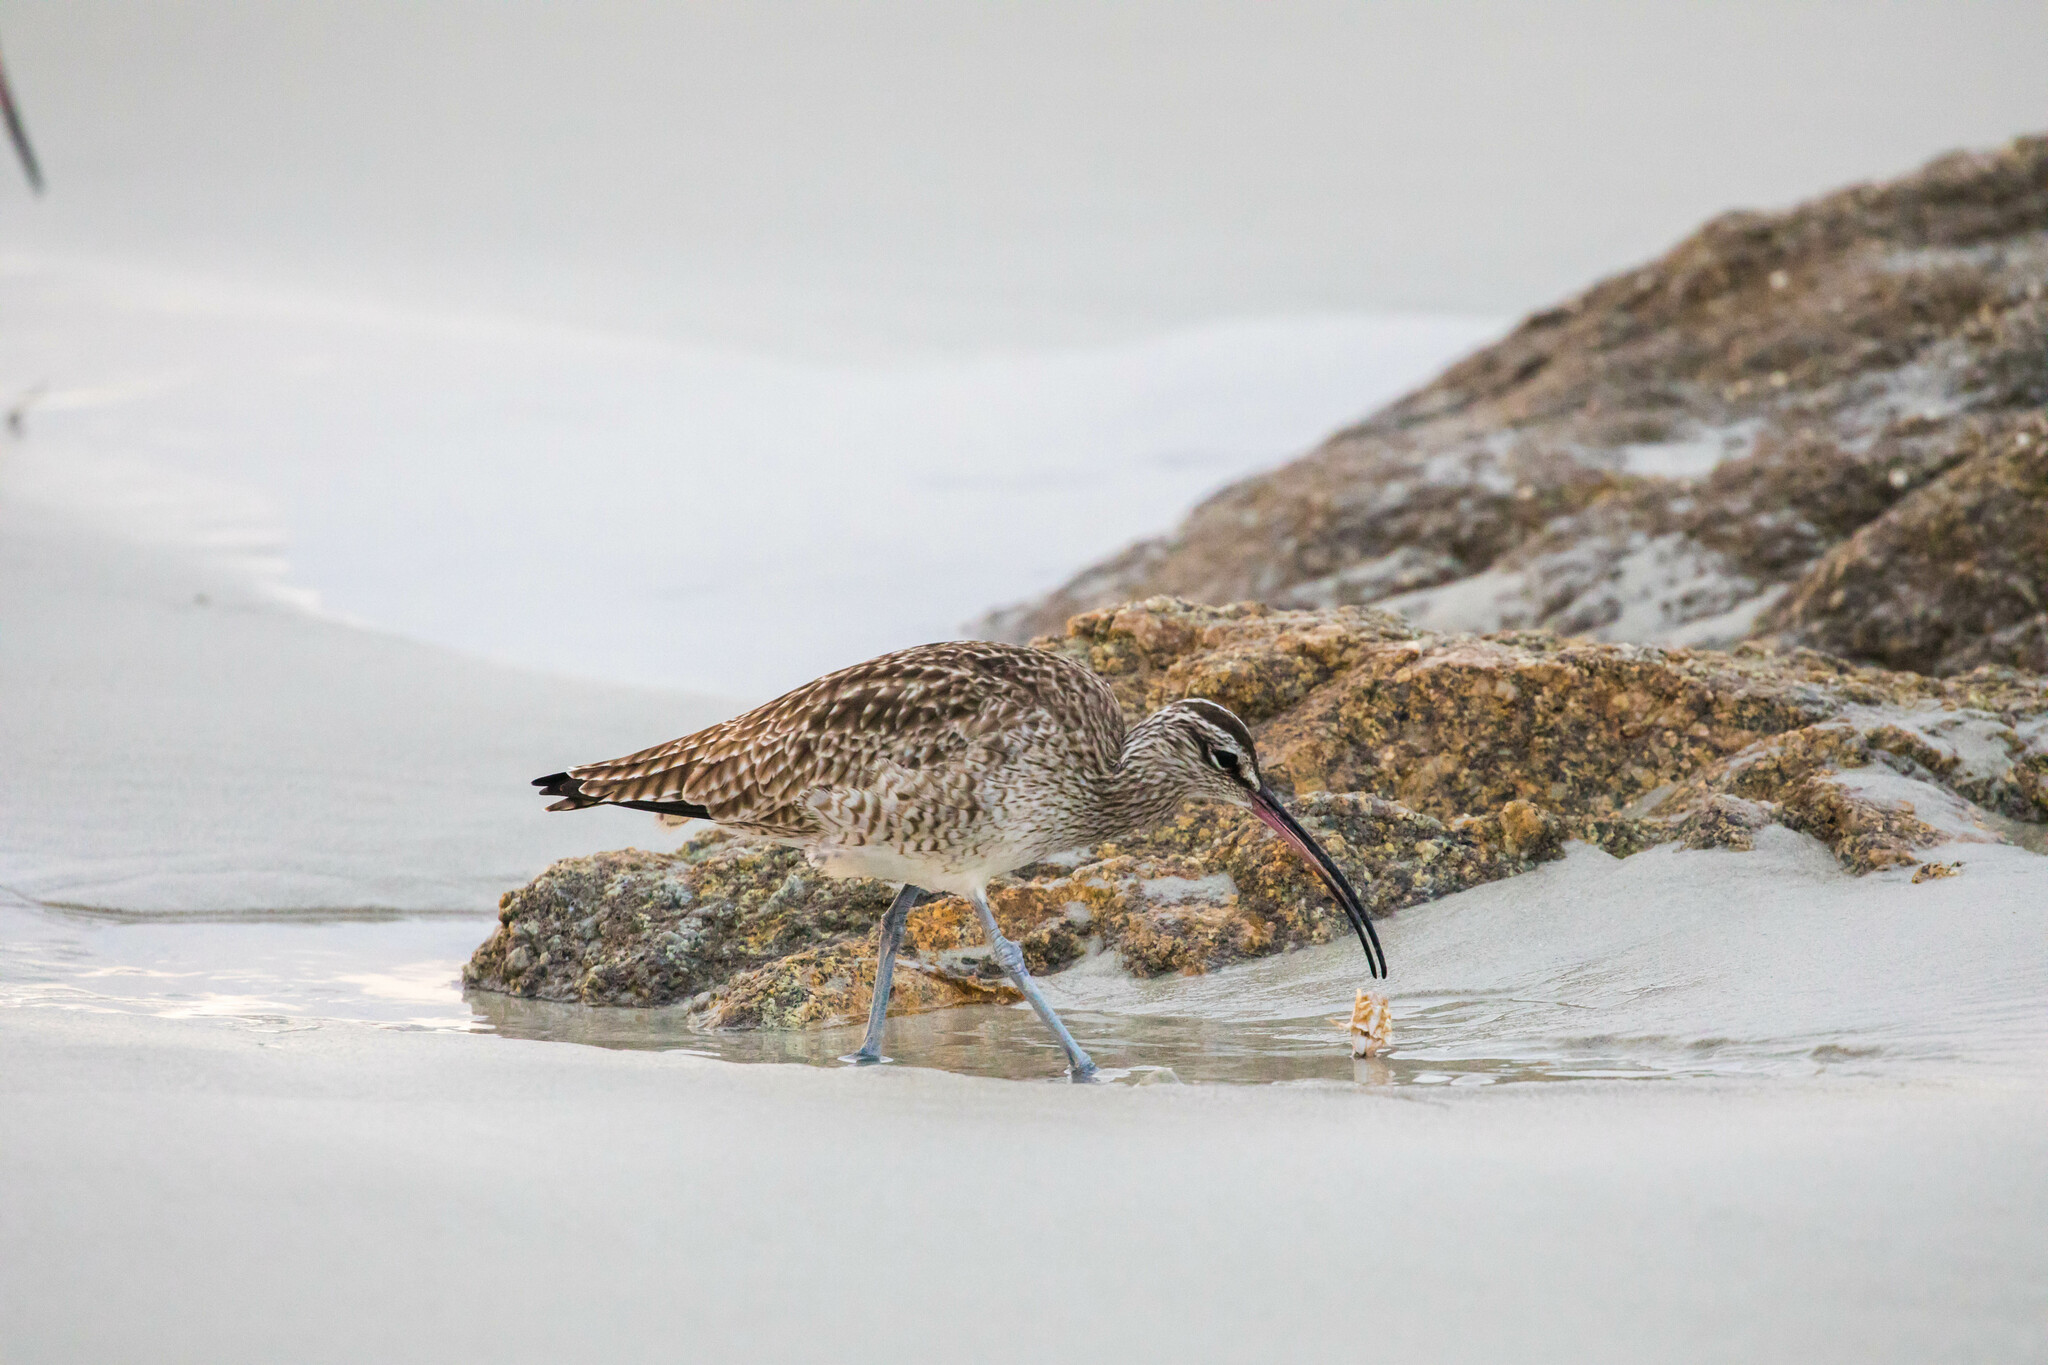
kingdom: Animalia
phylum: Chordata
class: Aves
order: Charadriiformes
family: Scolopacidae
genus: Numenius
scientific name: Numenius phaeopus
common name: Whimbrel
